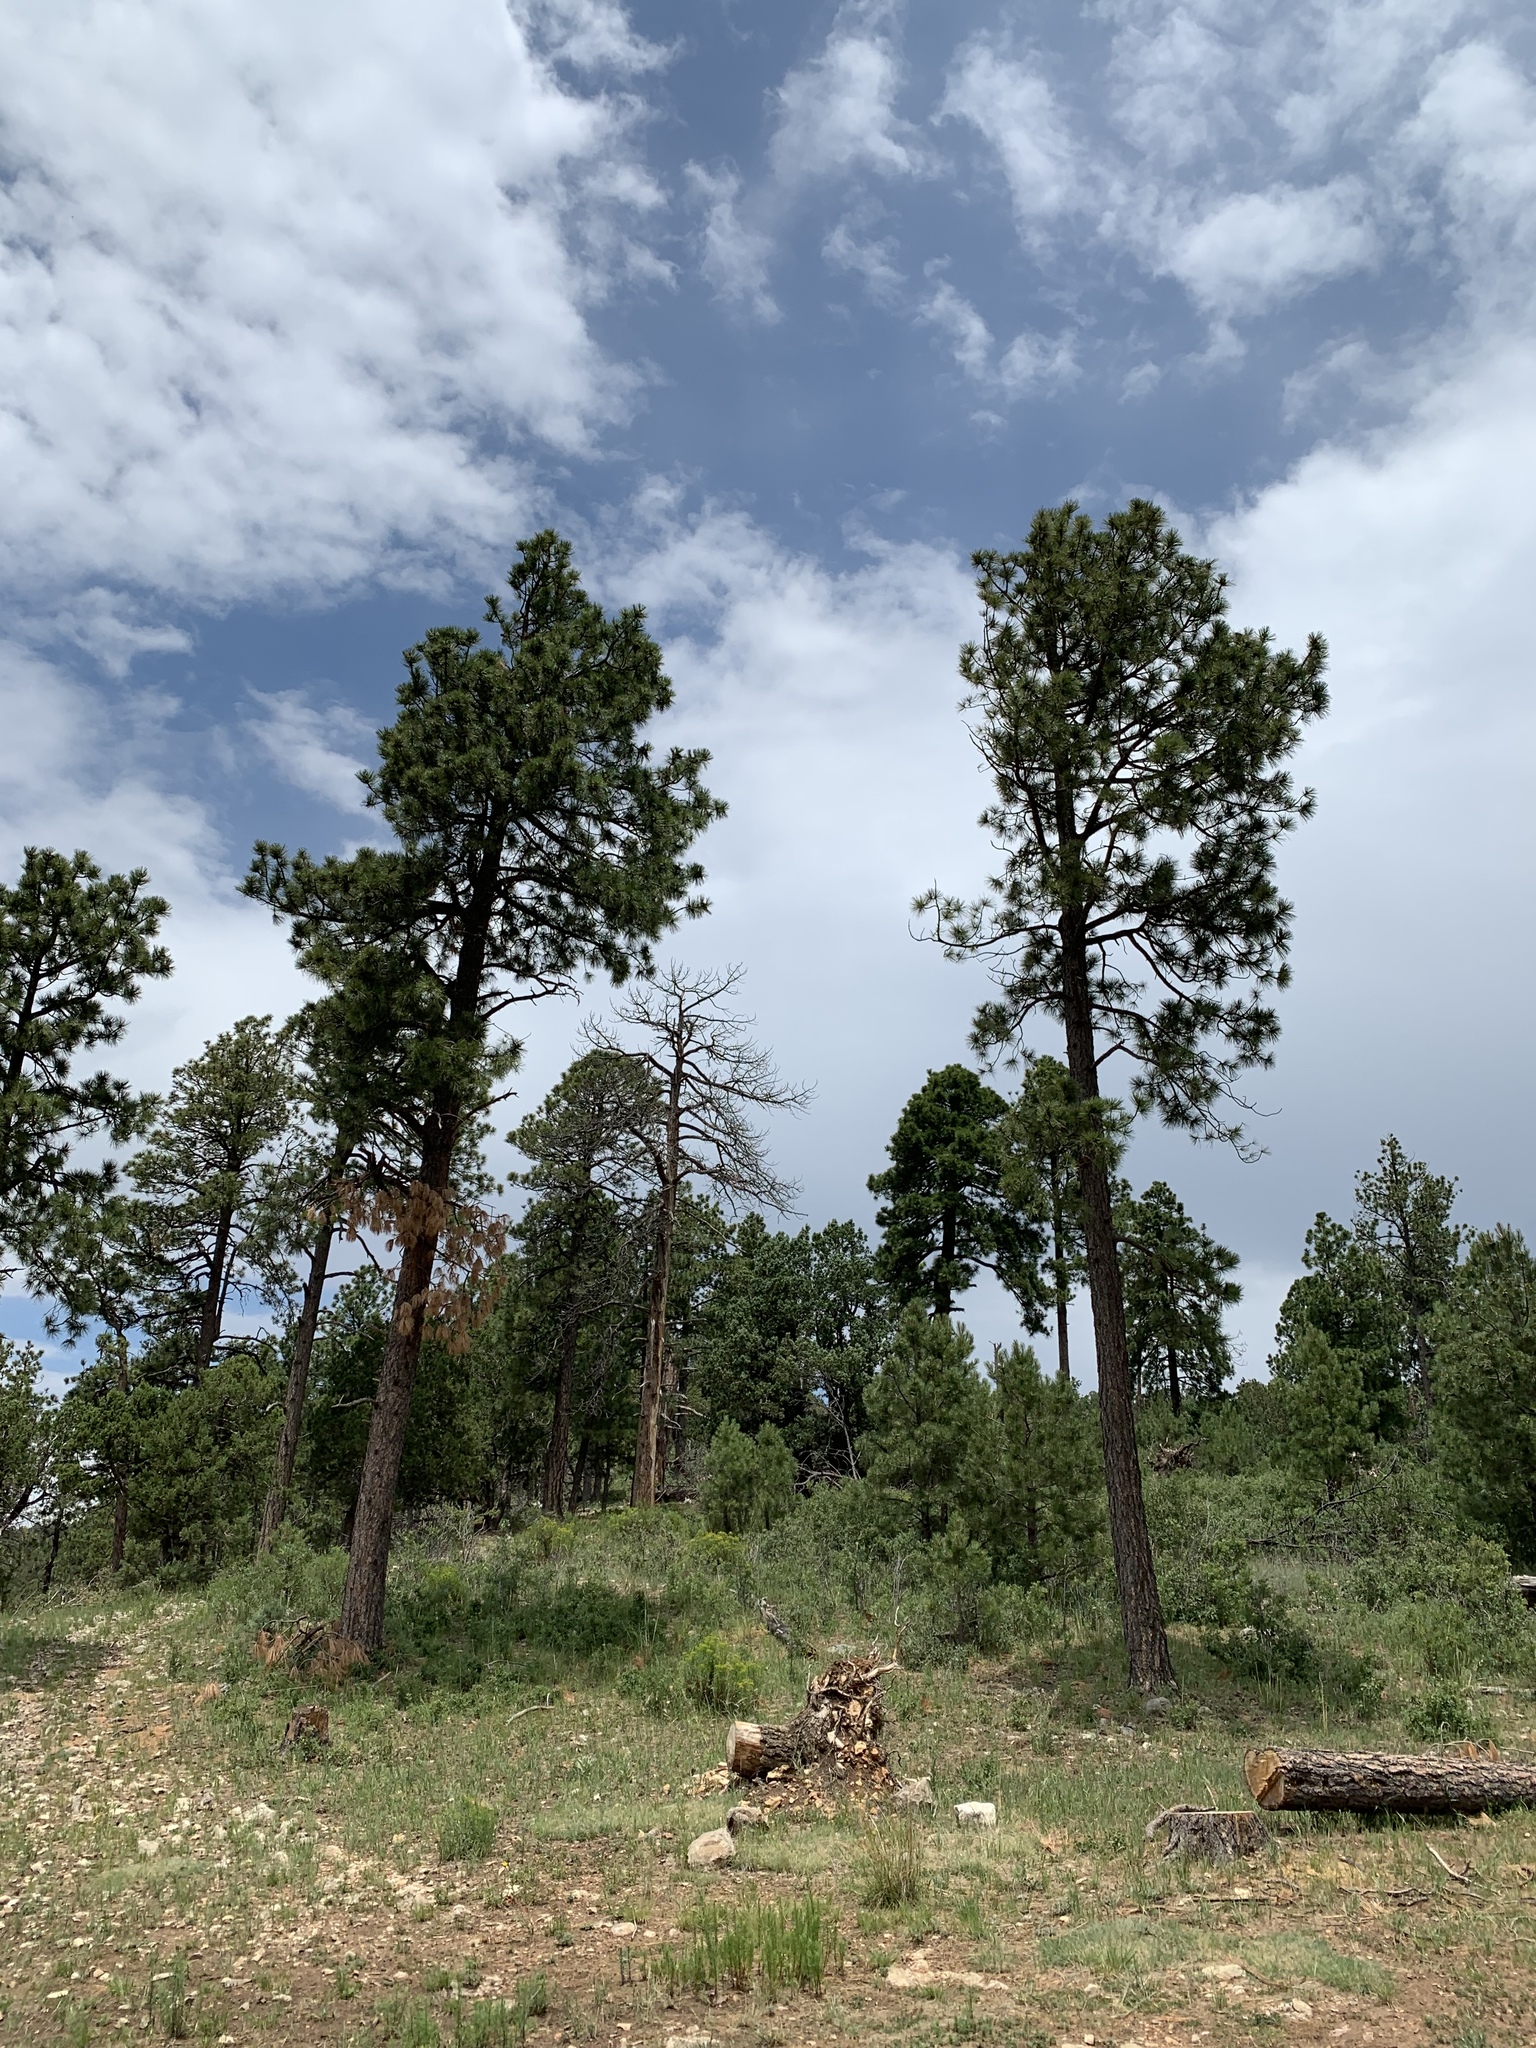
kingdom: Plantae
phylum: Tracheophyta
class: Pinopsida
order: Pinales
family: Pinaceae
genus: Pinus
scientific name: Pinus ponderosa
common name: Western yellow-pine
